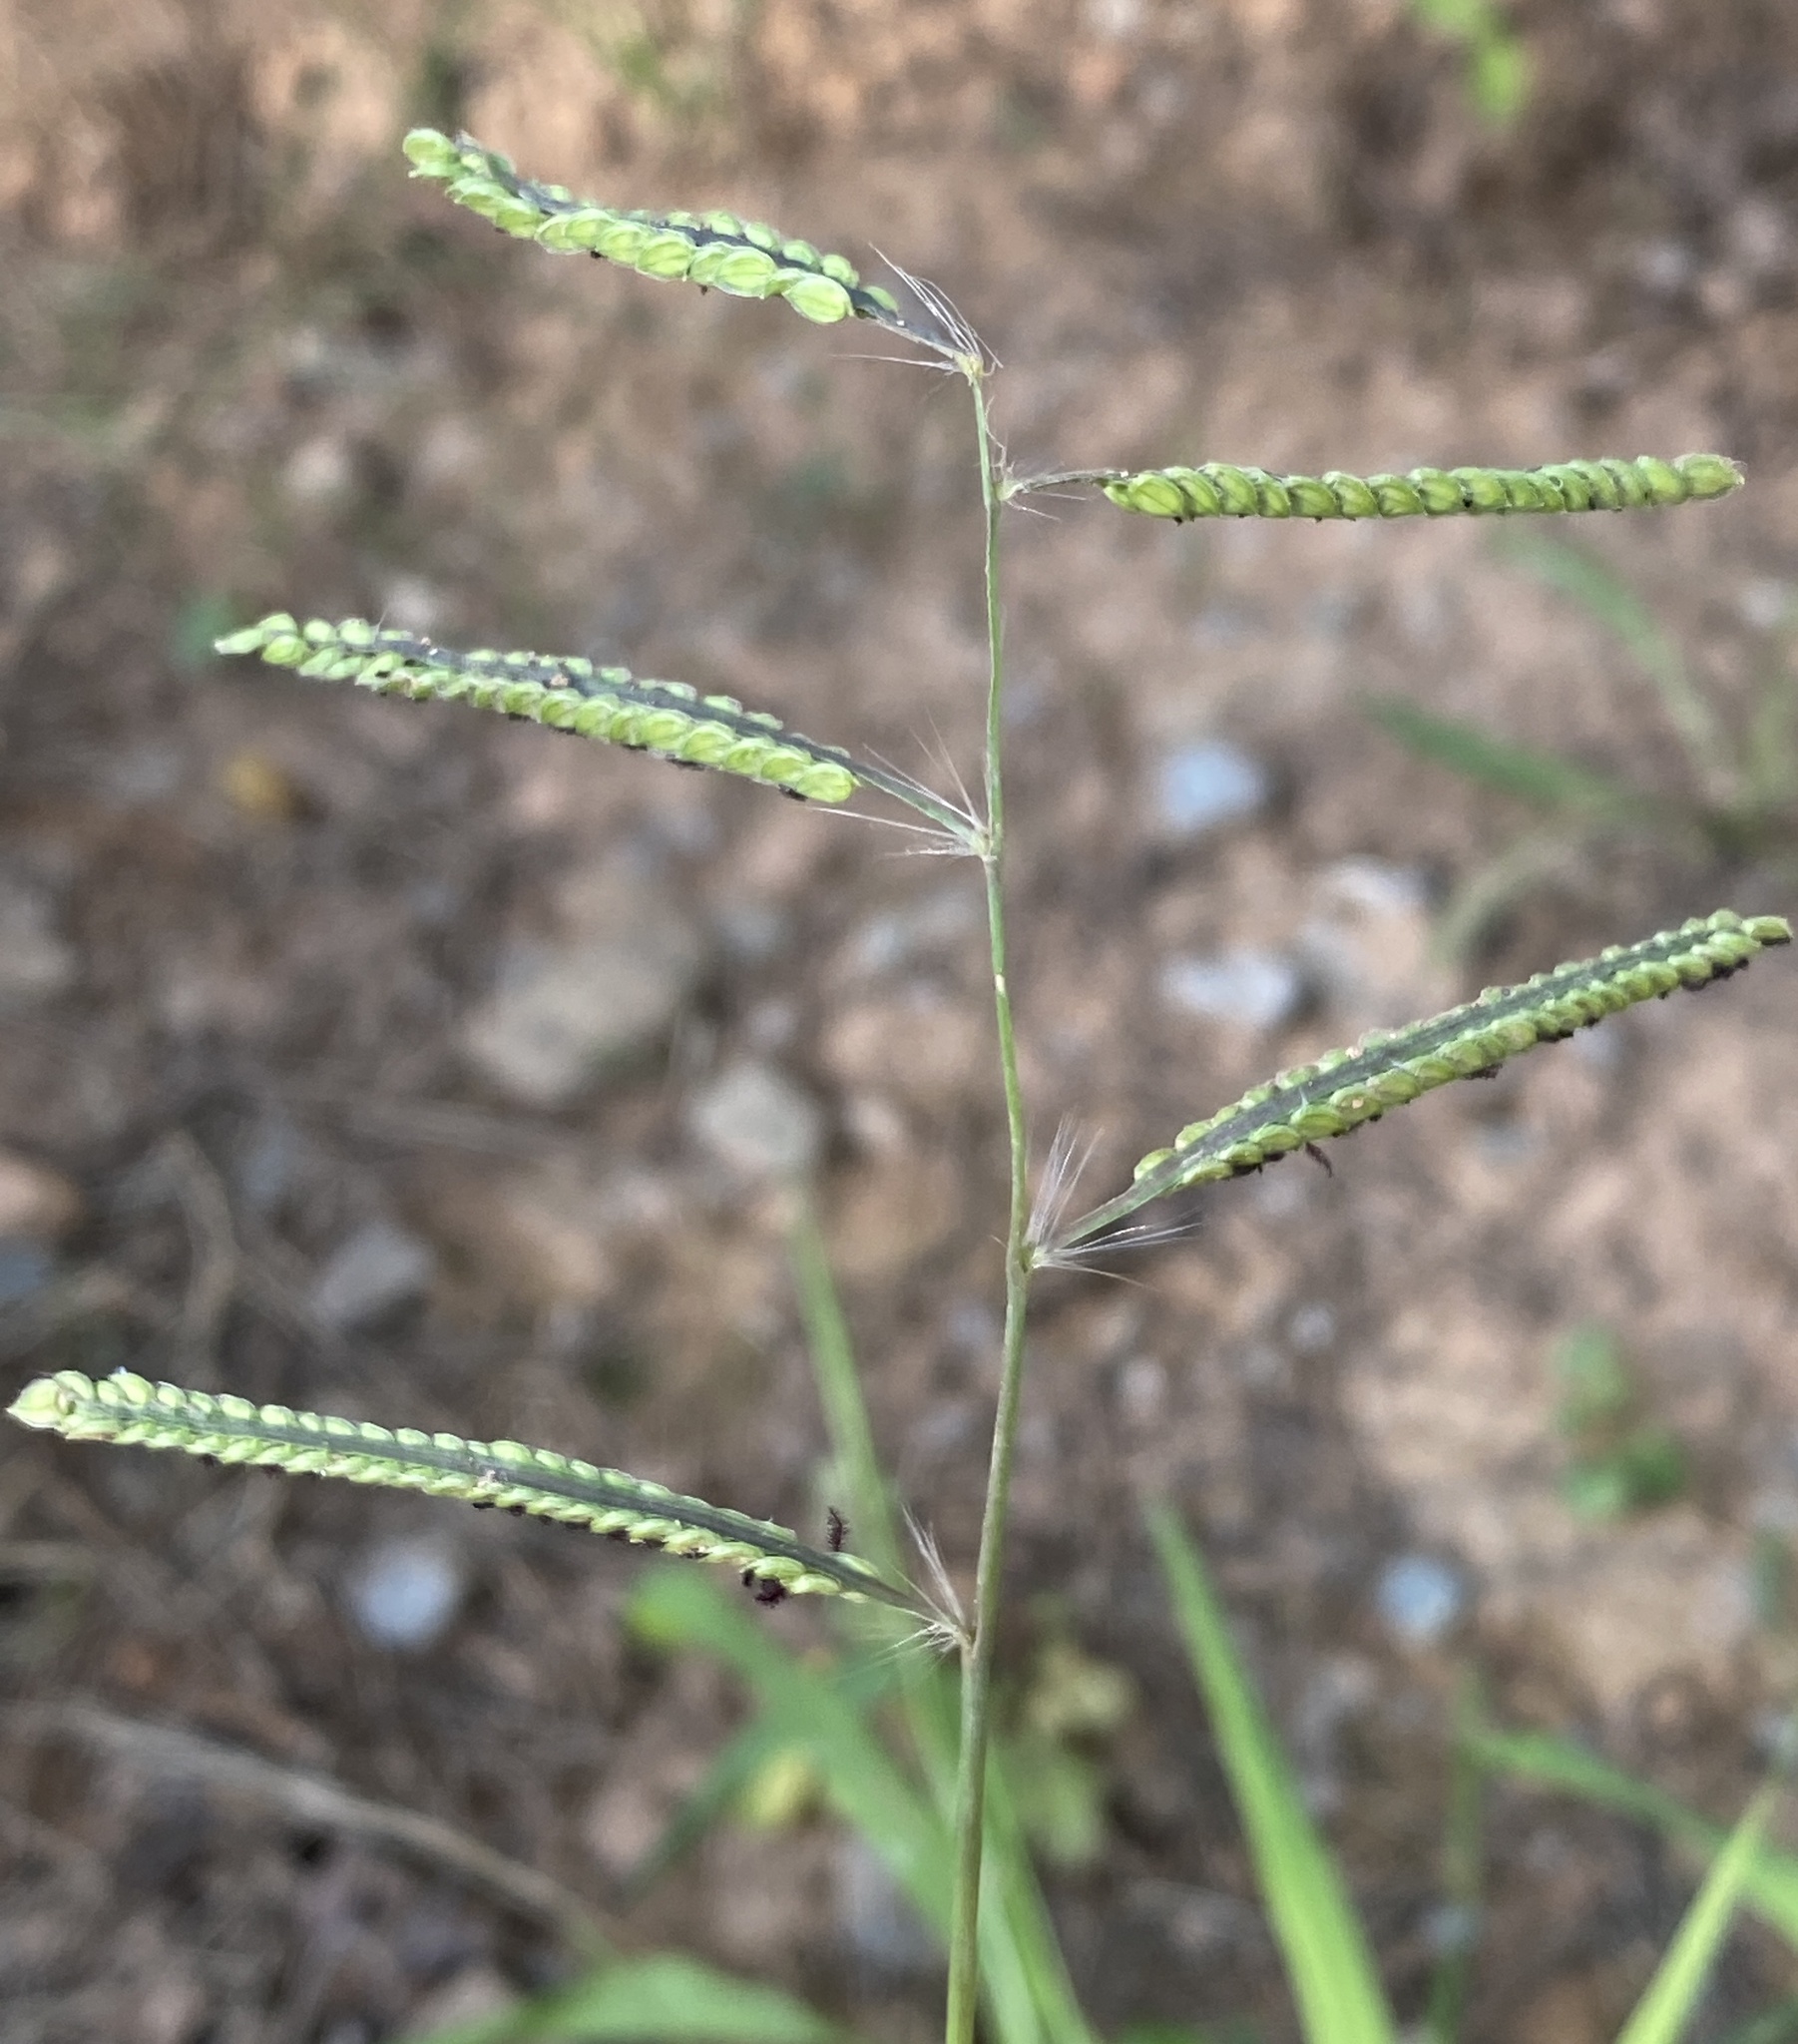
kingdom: Plantae
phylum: Tracheophyta
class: Liliopsida
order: Poales
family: Poaceae
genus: Paspalum
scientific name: Paspalum dilatatum
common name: Dallisgrass
